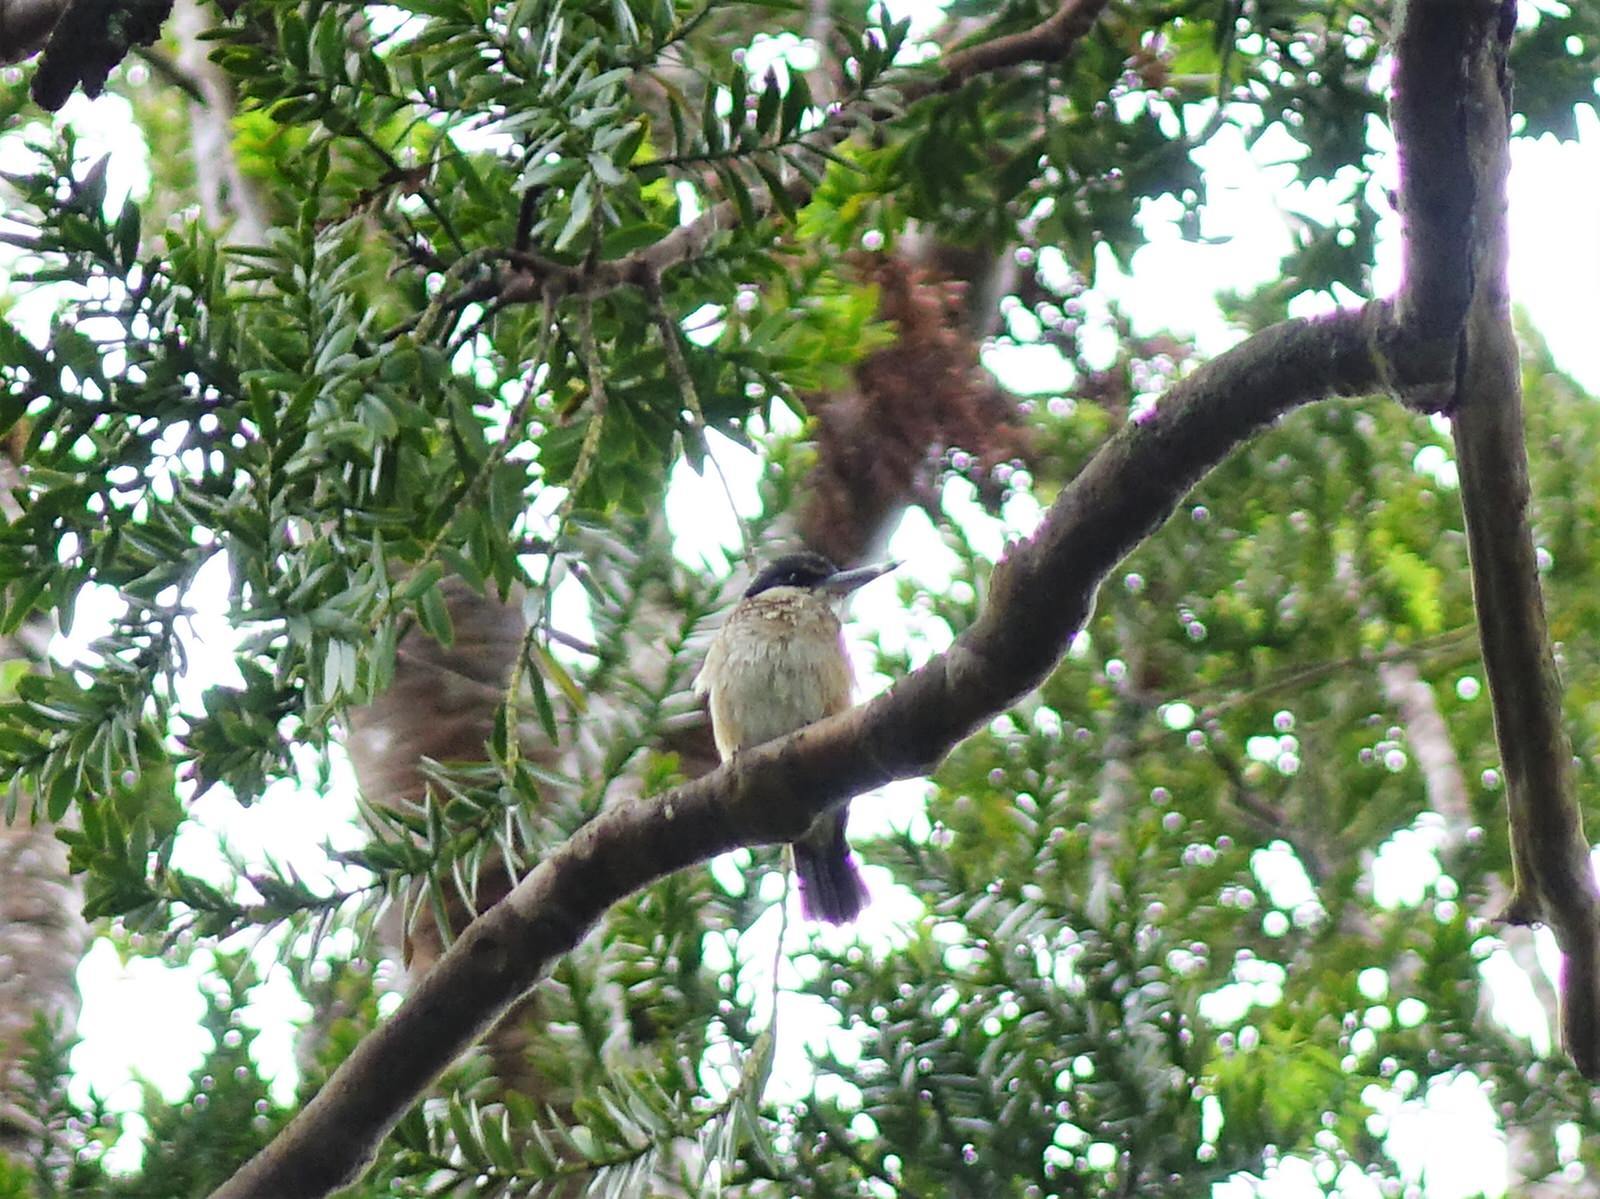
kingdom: Animalia
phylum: Chordata
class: Aves
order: Coraciiformes
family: Alcedinidae
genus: Todiramphus
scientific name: Todiramphus sanctus
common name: Sacred kingfisher
